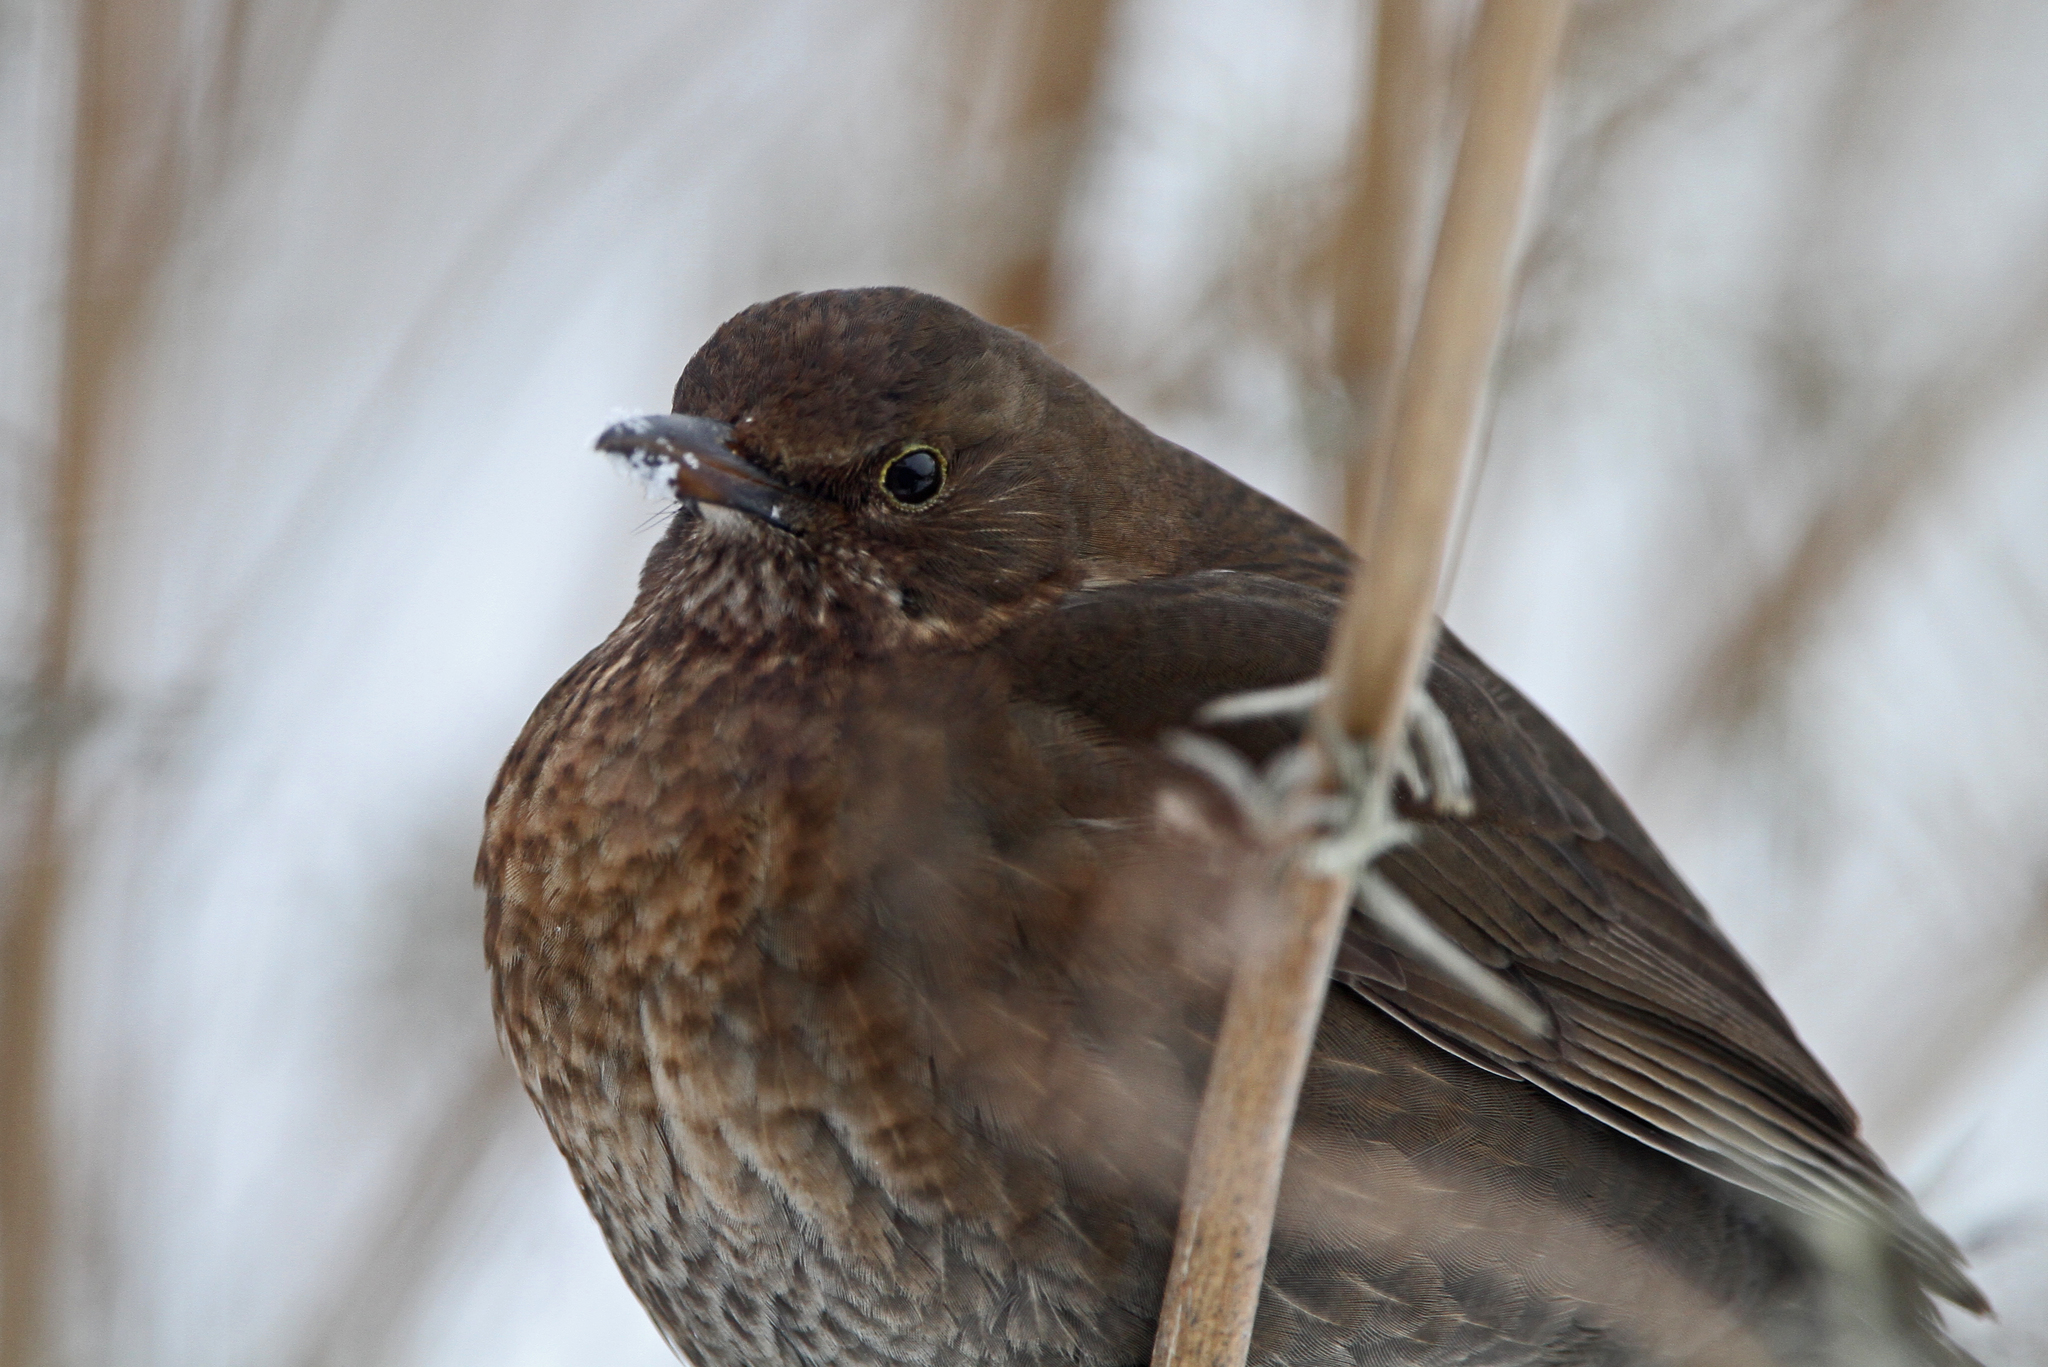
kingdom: Animalia
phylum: Chordata
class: Aves
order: Passeriformes
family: Turdidae
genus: Turdus
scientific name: Turdus merula
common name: Common blackbird
